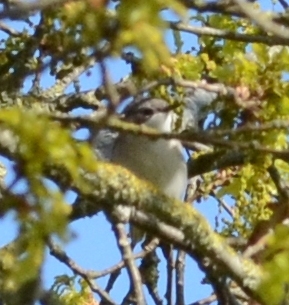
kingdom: Animalia
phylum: Chordata
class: Aves
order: Passeriformes
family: Sylviidae
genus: Sylvia
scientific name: Sylvia curruca
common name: Lesser whitethroat
